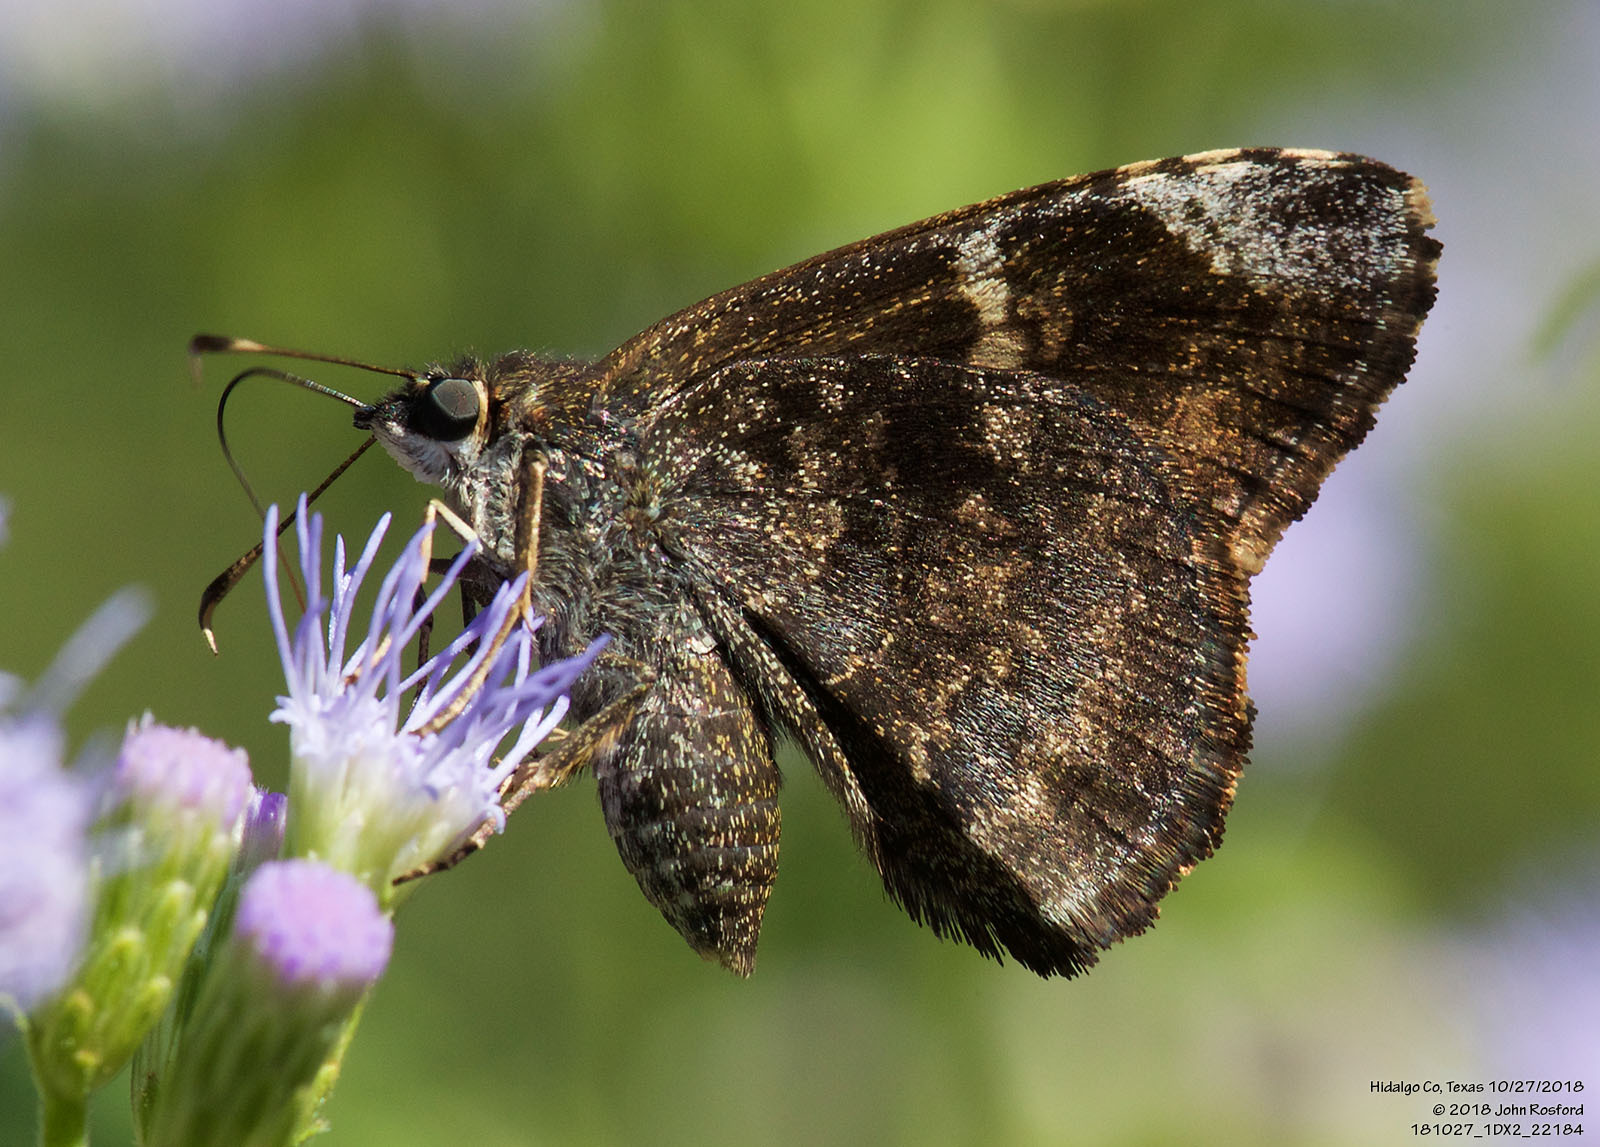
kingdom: Animalia
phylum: Arthropoda
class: Insecta
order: Lepidoptera
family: Hesperiidae
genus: Caicella
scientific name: Caicella calchas
